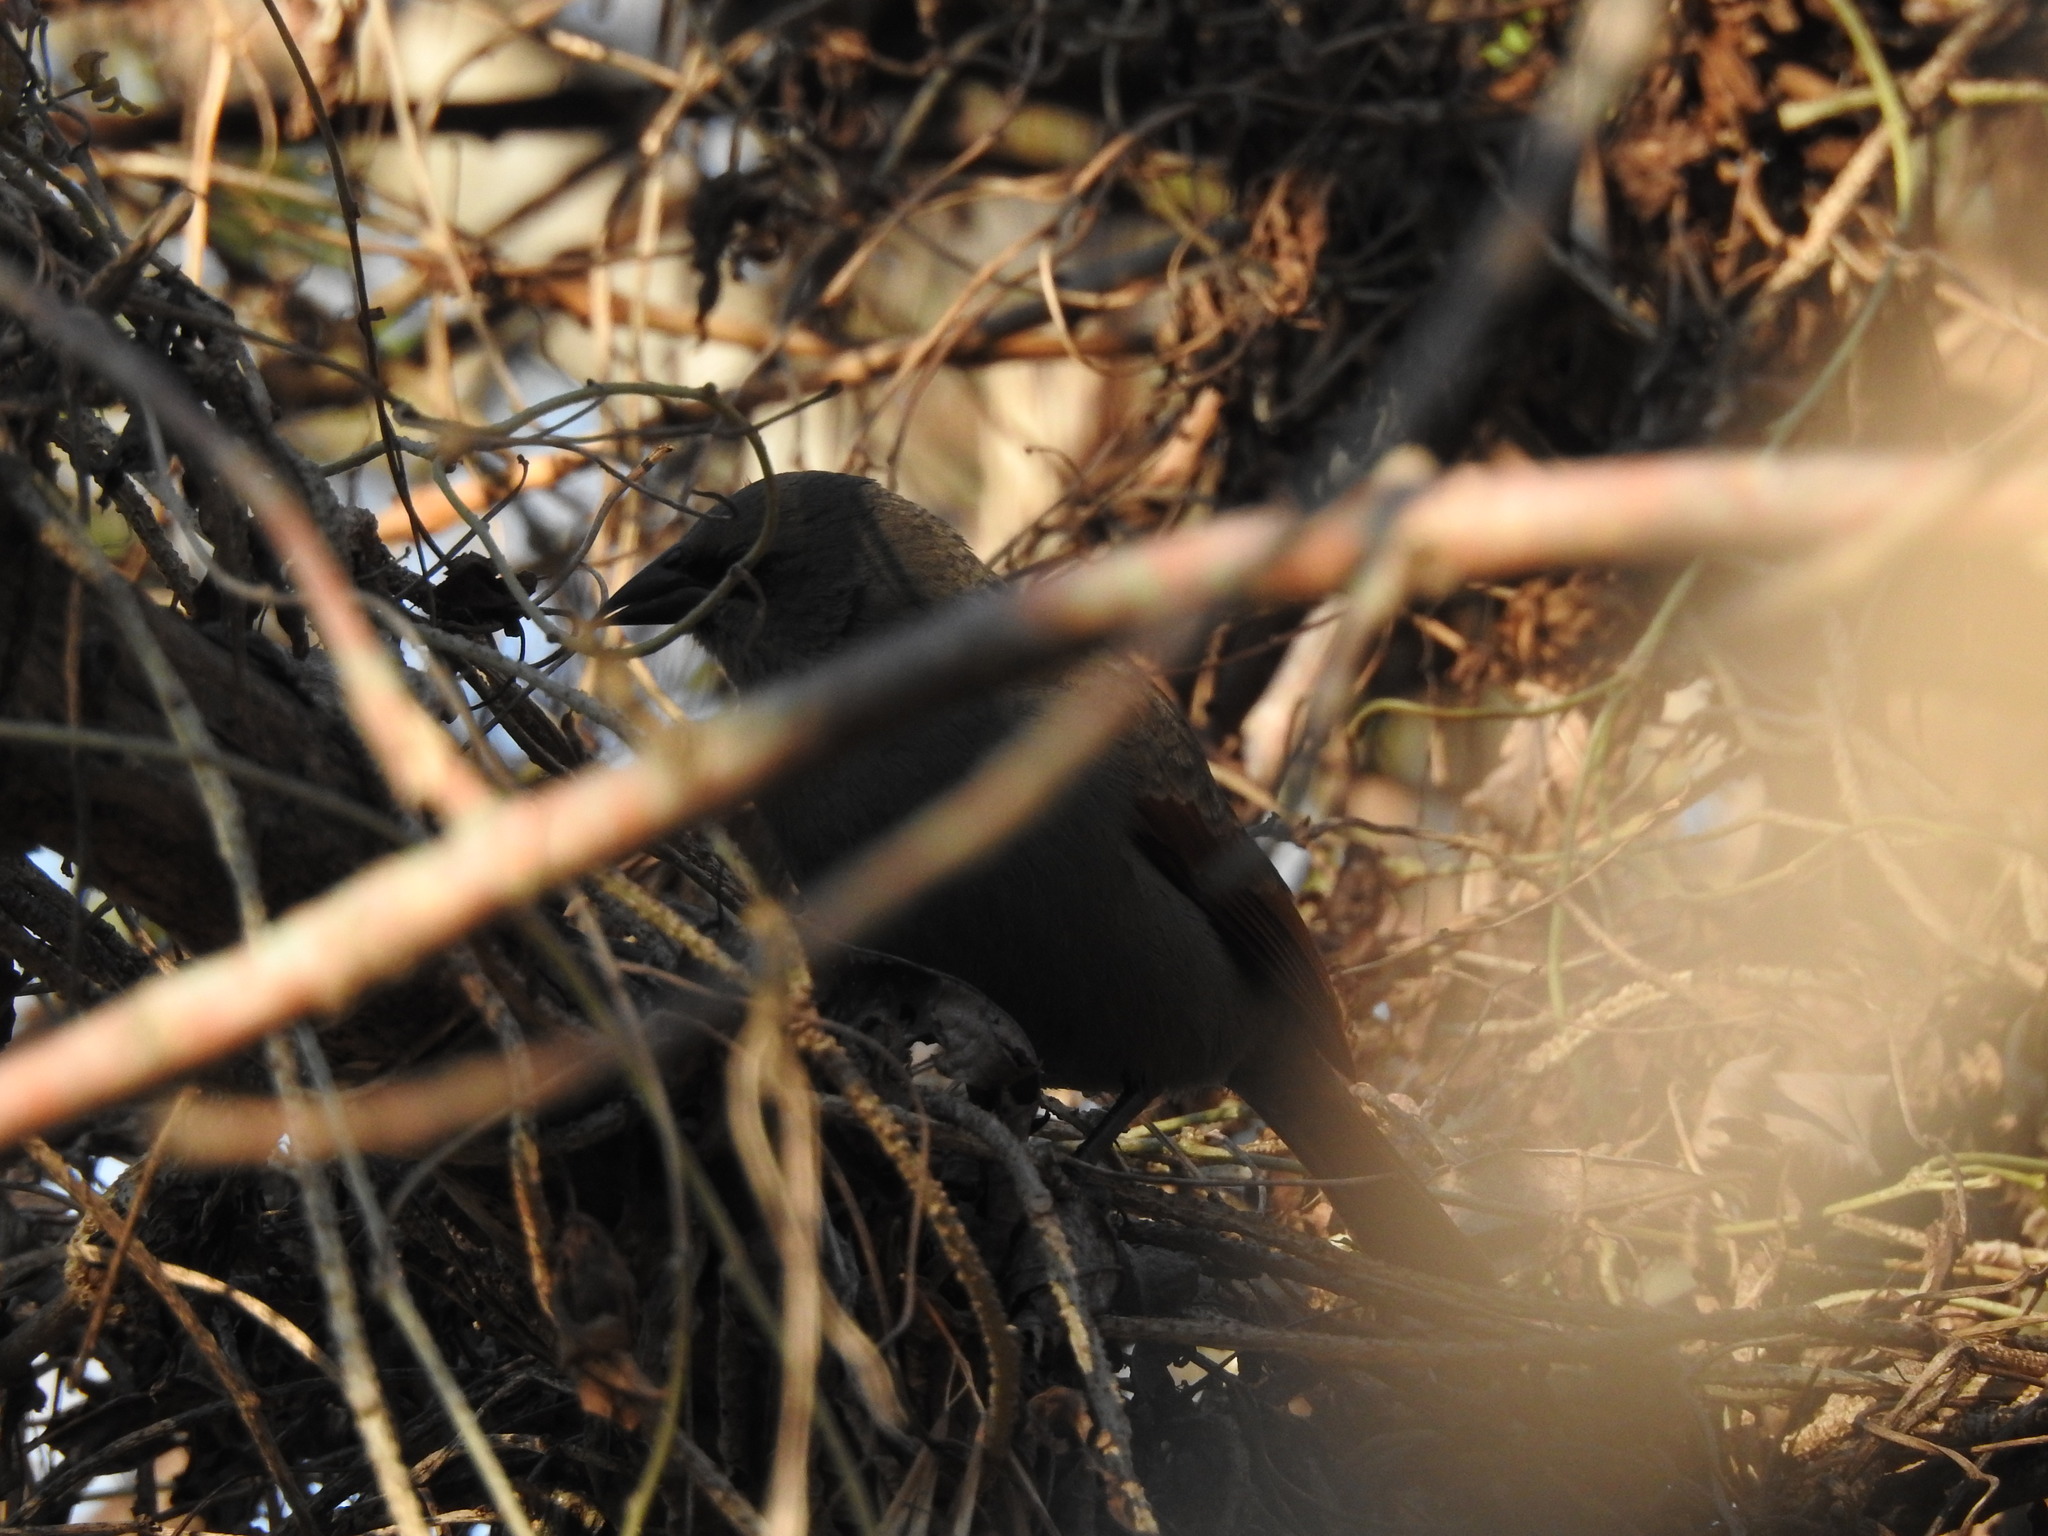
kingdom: Animalia
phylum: Chordata
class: Aves
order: Passeriformes
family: Icteridae
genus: Agelaioides
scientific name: Agelaioides badius
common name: Baywing
